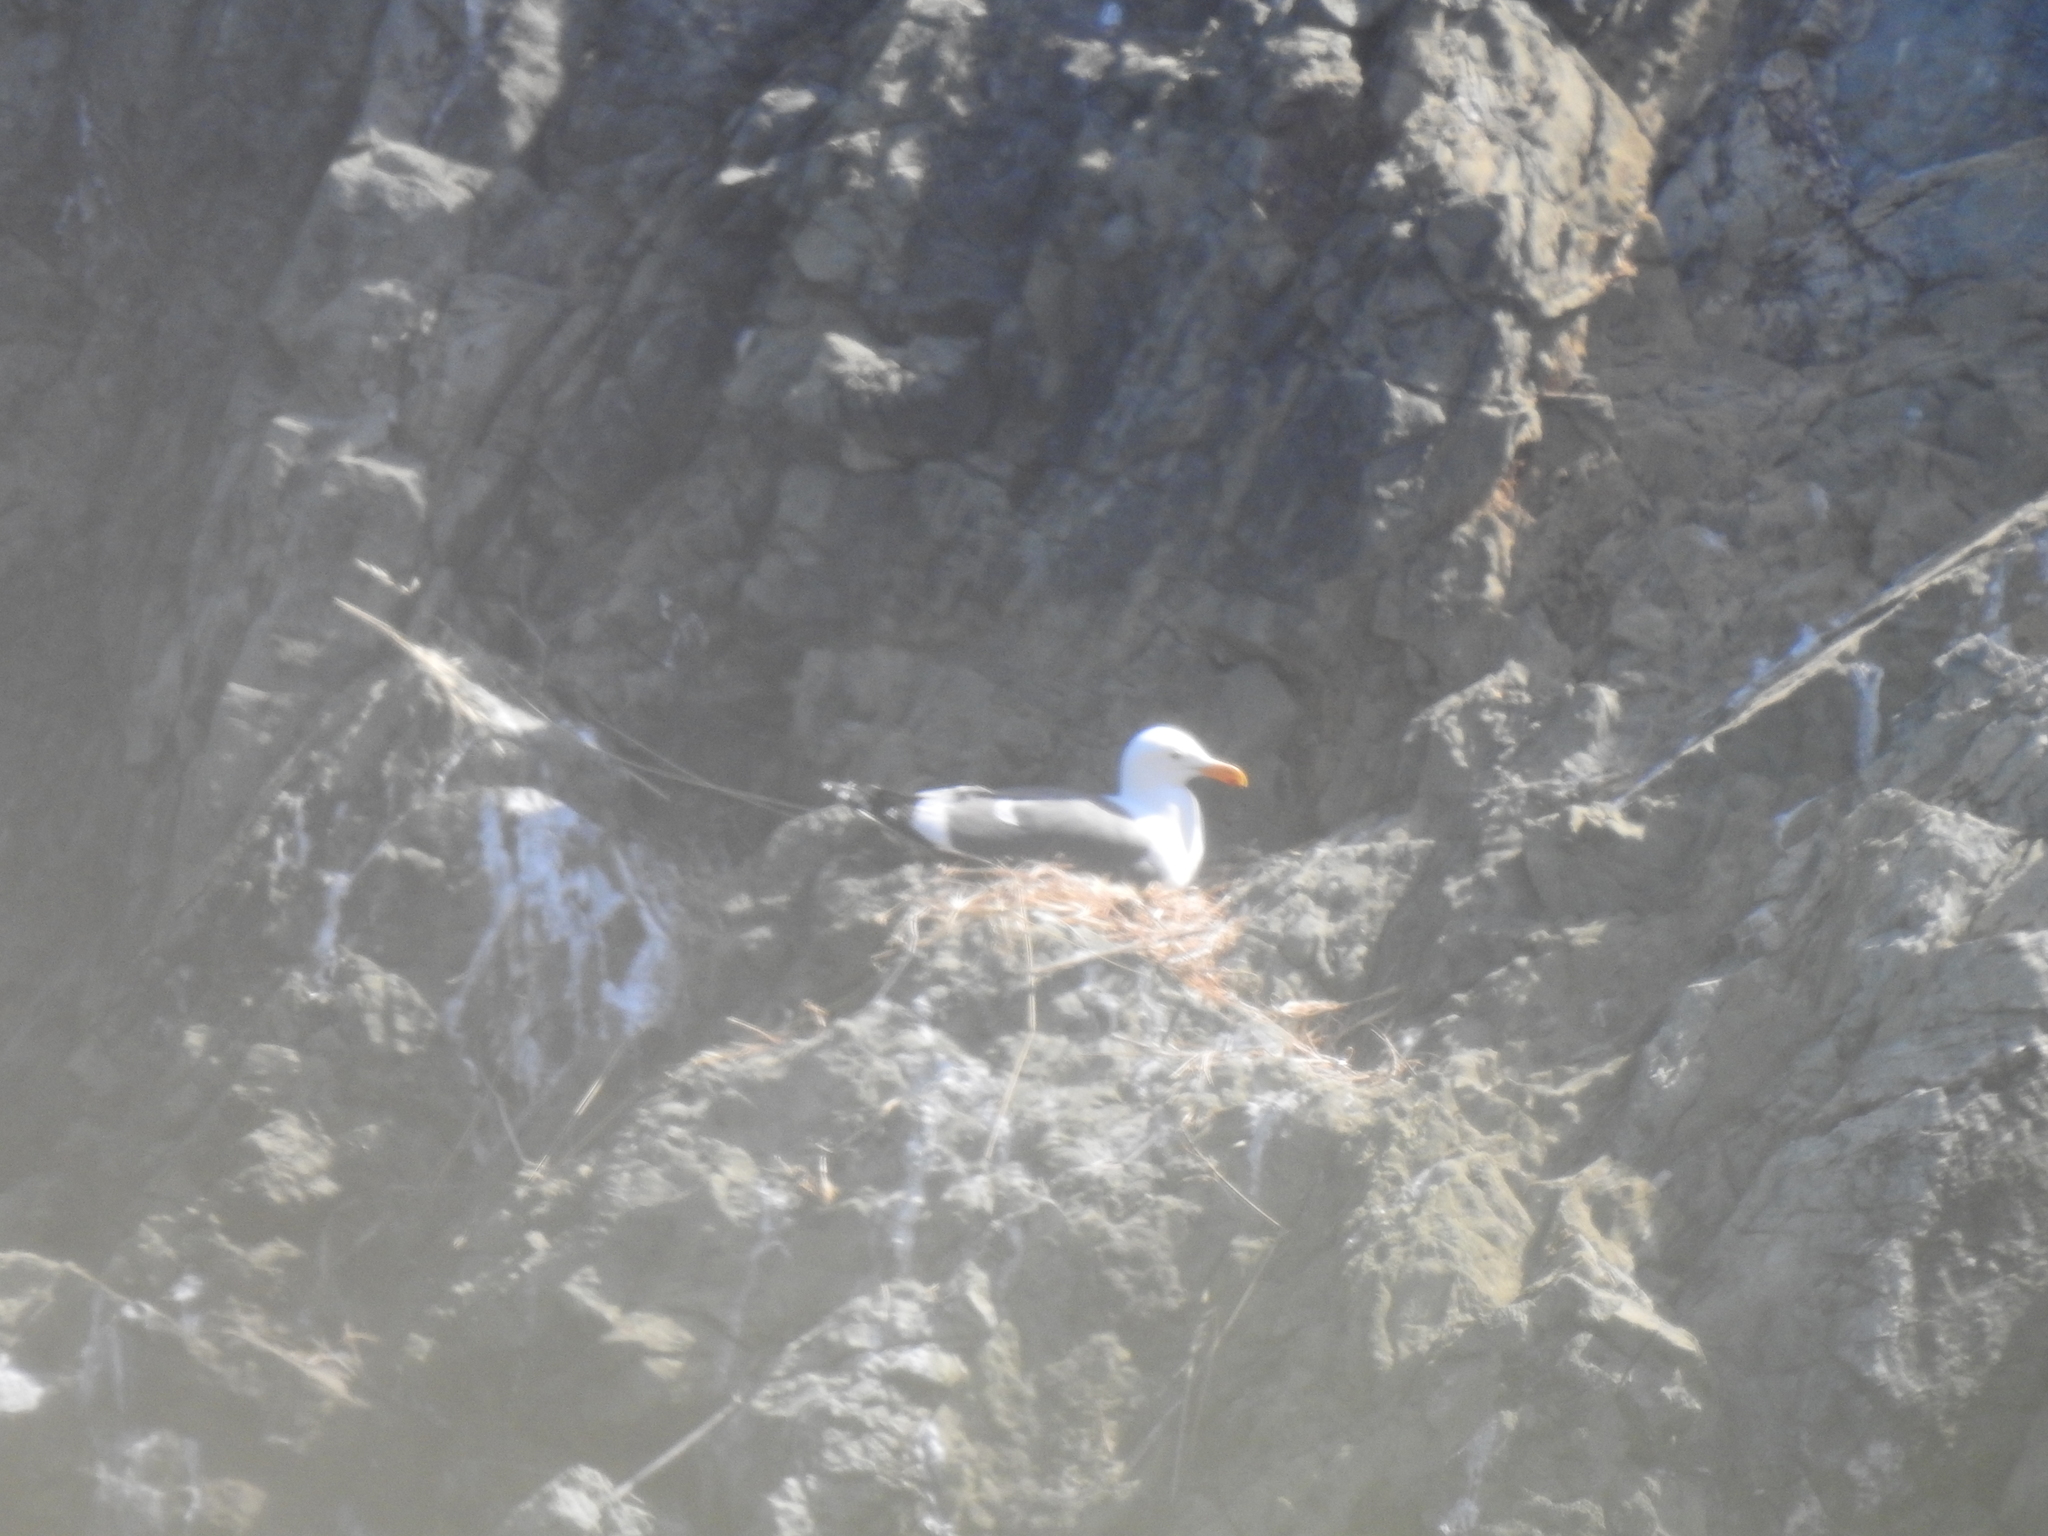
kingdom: Animalia
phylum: Chordata
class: Aves
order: Charadriiformes
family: Laridae
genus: Larus
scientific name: Larus occidentalis
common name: Western gull
